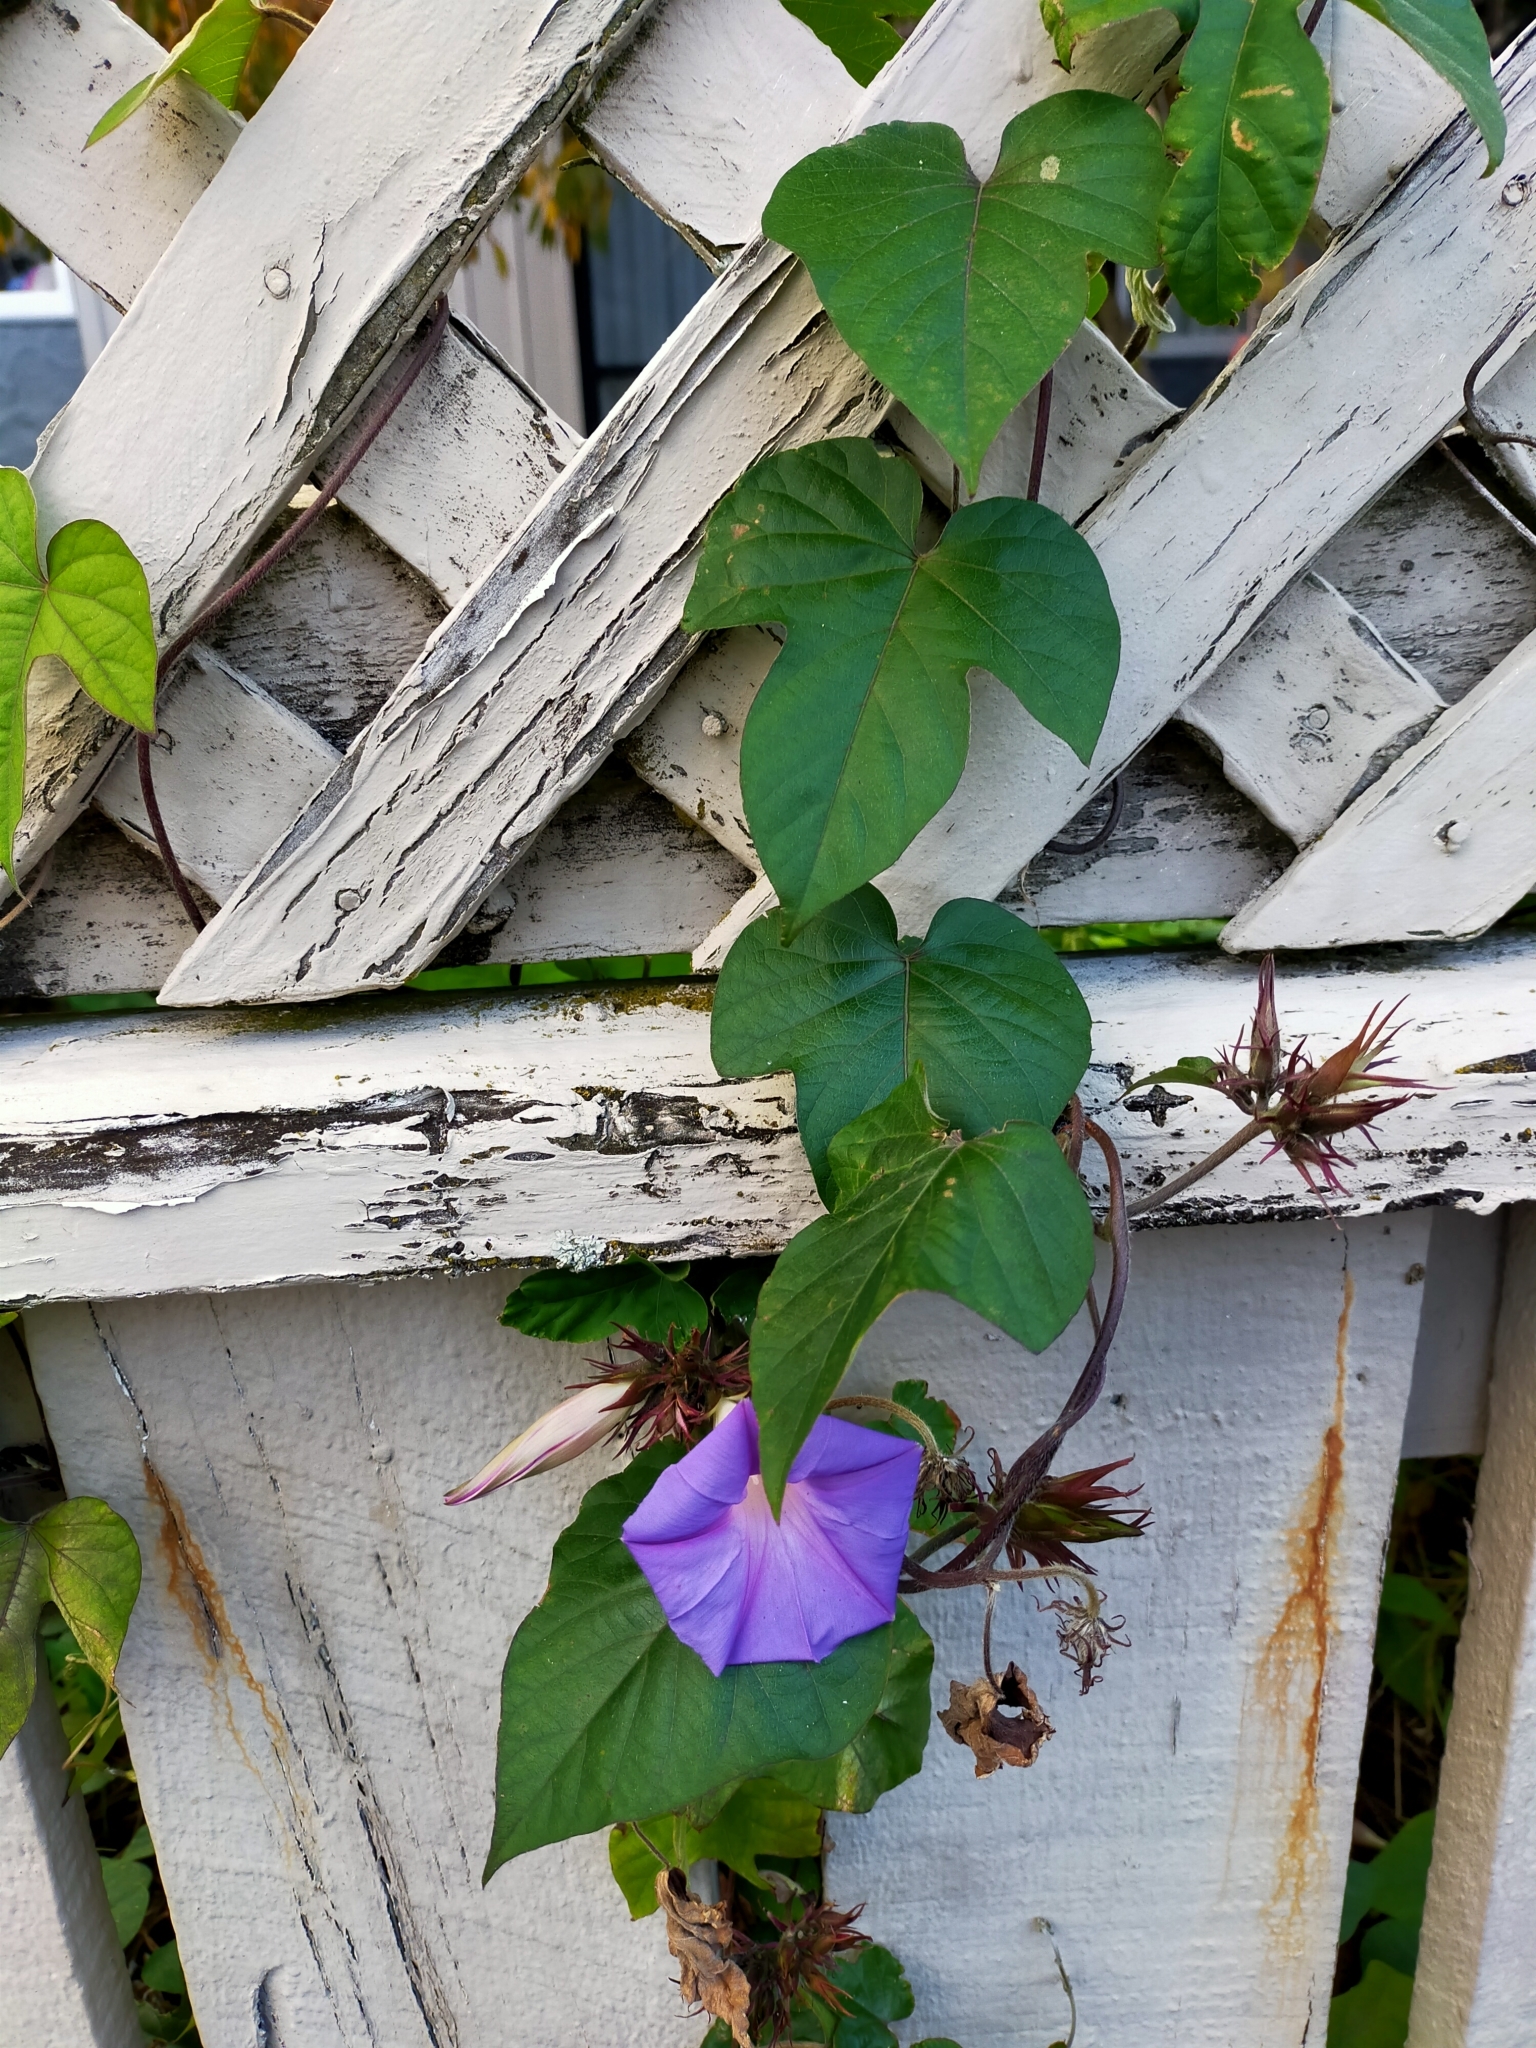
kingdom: Plantae
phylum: Tracheophyta
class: Magnoliopsida
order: Solanales
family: Convolvulaceae
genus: Ipomoea
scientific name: Ipomoea indica
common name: Blue dawnflower
